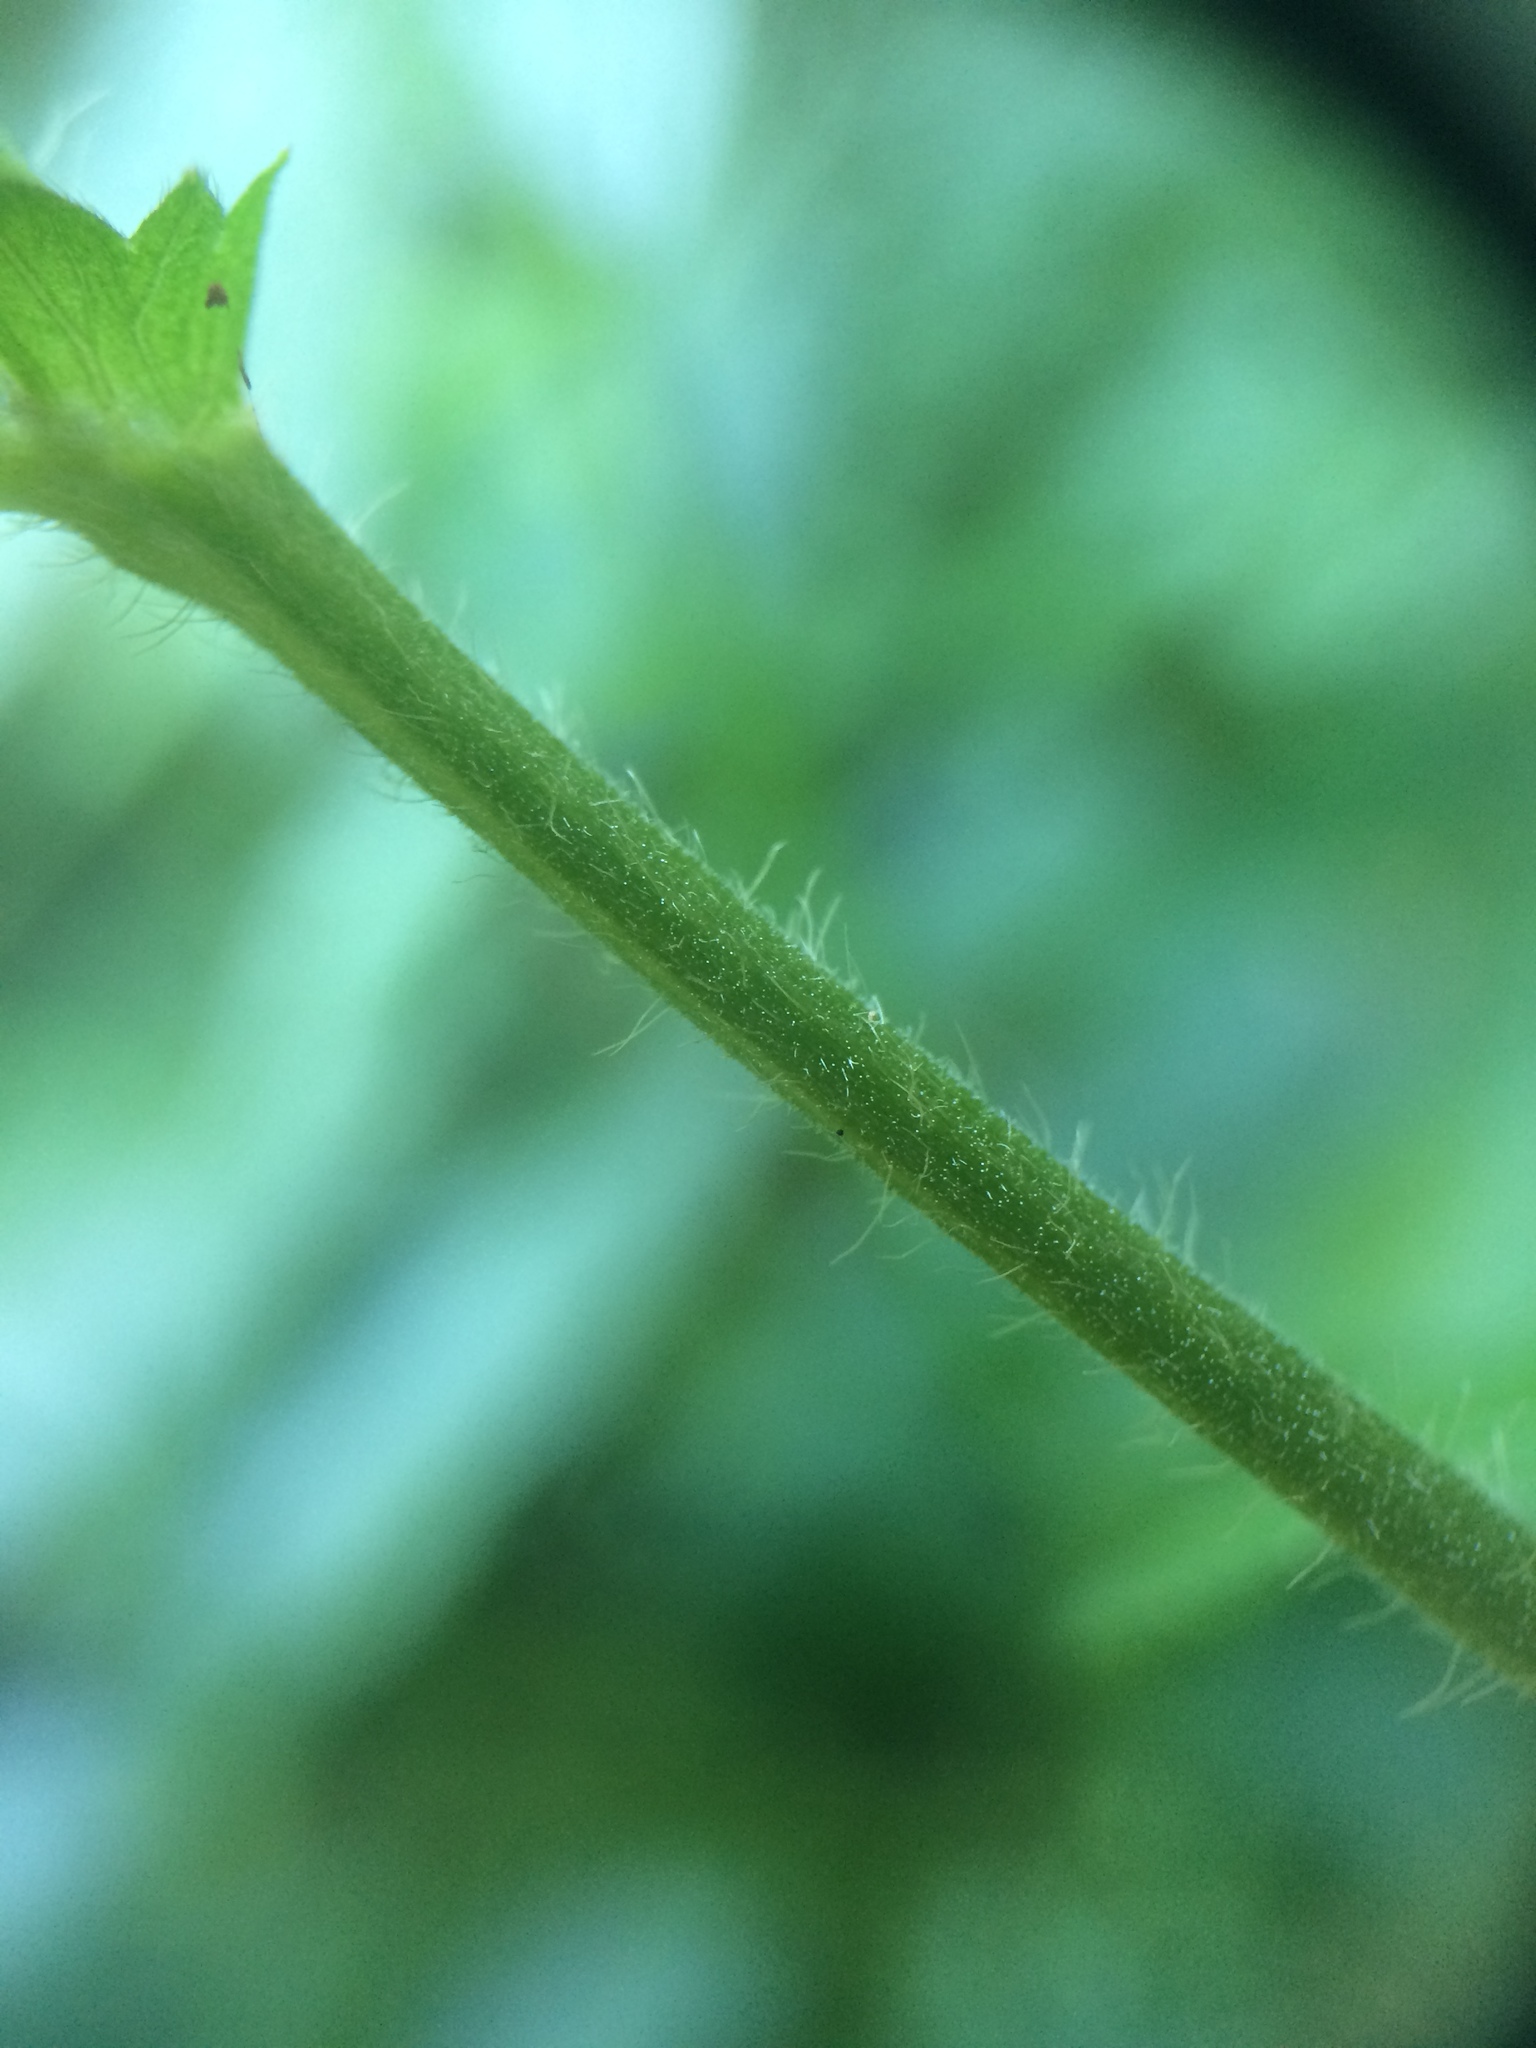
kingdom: Plantae
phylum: Tracheophyta
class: Magnoliopsida
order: Rosales
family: Rosaceae
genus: Agrimonia
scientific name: Agrimonia gryposepala
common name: Common agrimony
